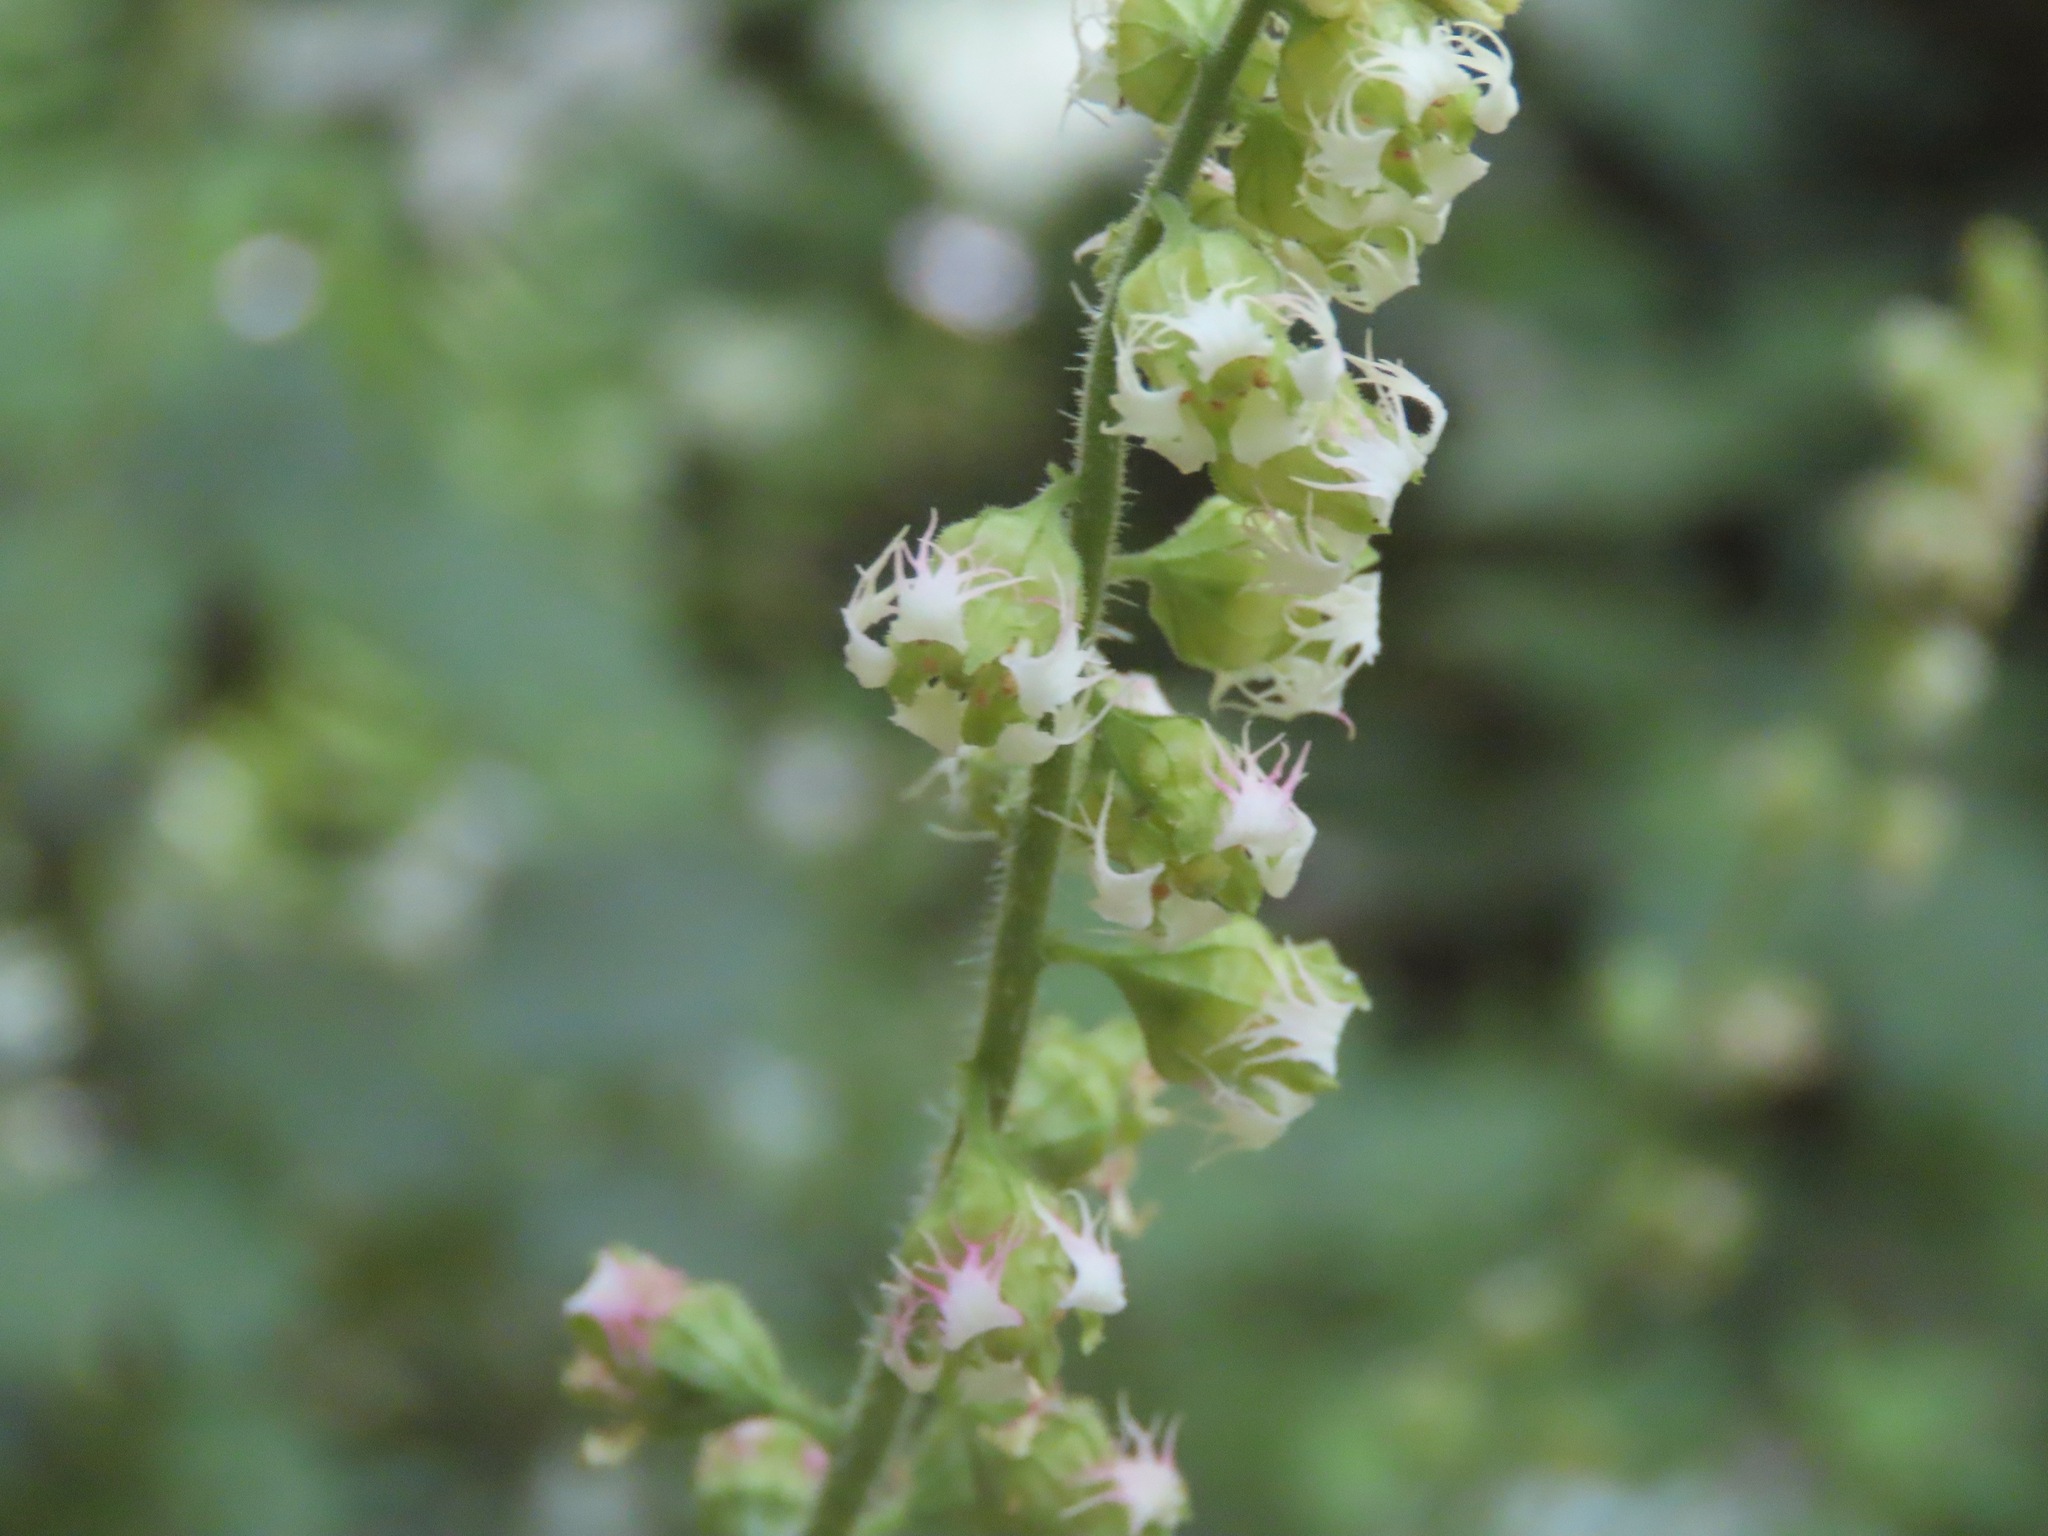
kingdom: Plantae
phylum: Tracheophyta
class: Magnoliopsida
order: Saxifragales
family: Saxifragaceae
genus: Tellima
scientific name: Tellima grandiflora
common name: Fringecups
